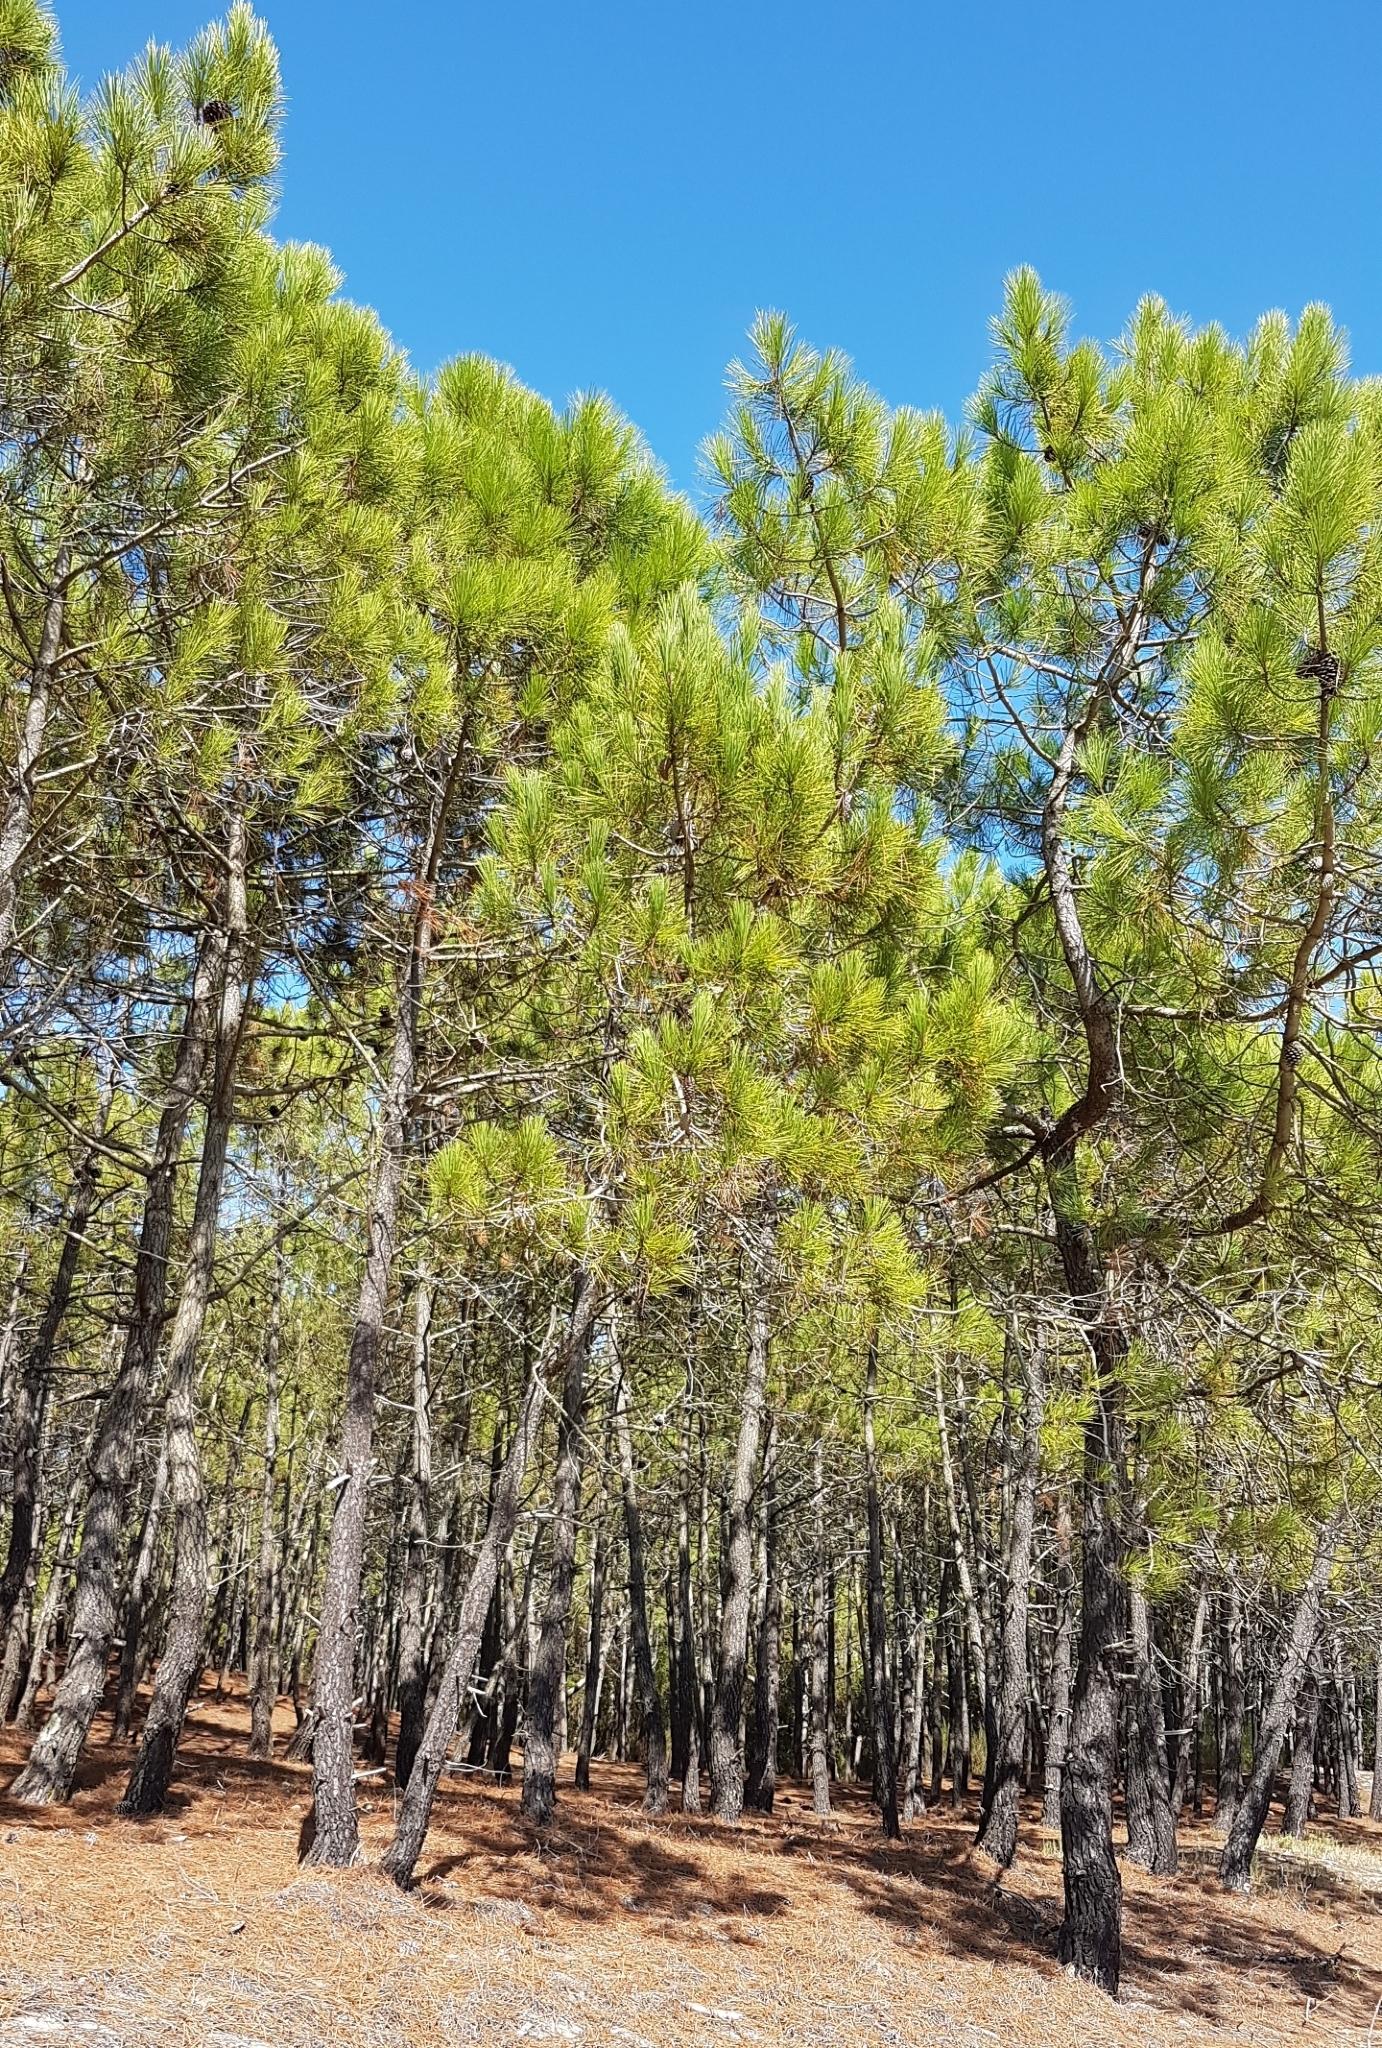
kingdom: Plantae
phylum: Tracheophyta
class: Pinopsida
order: Pinales
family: Pinaceae
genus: Pinus
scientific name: Pinus pinaster
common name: Maritime pine
